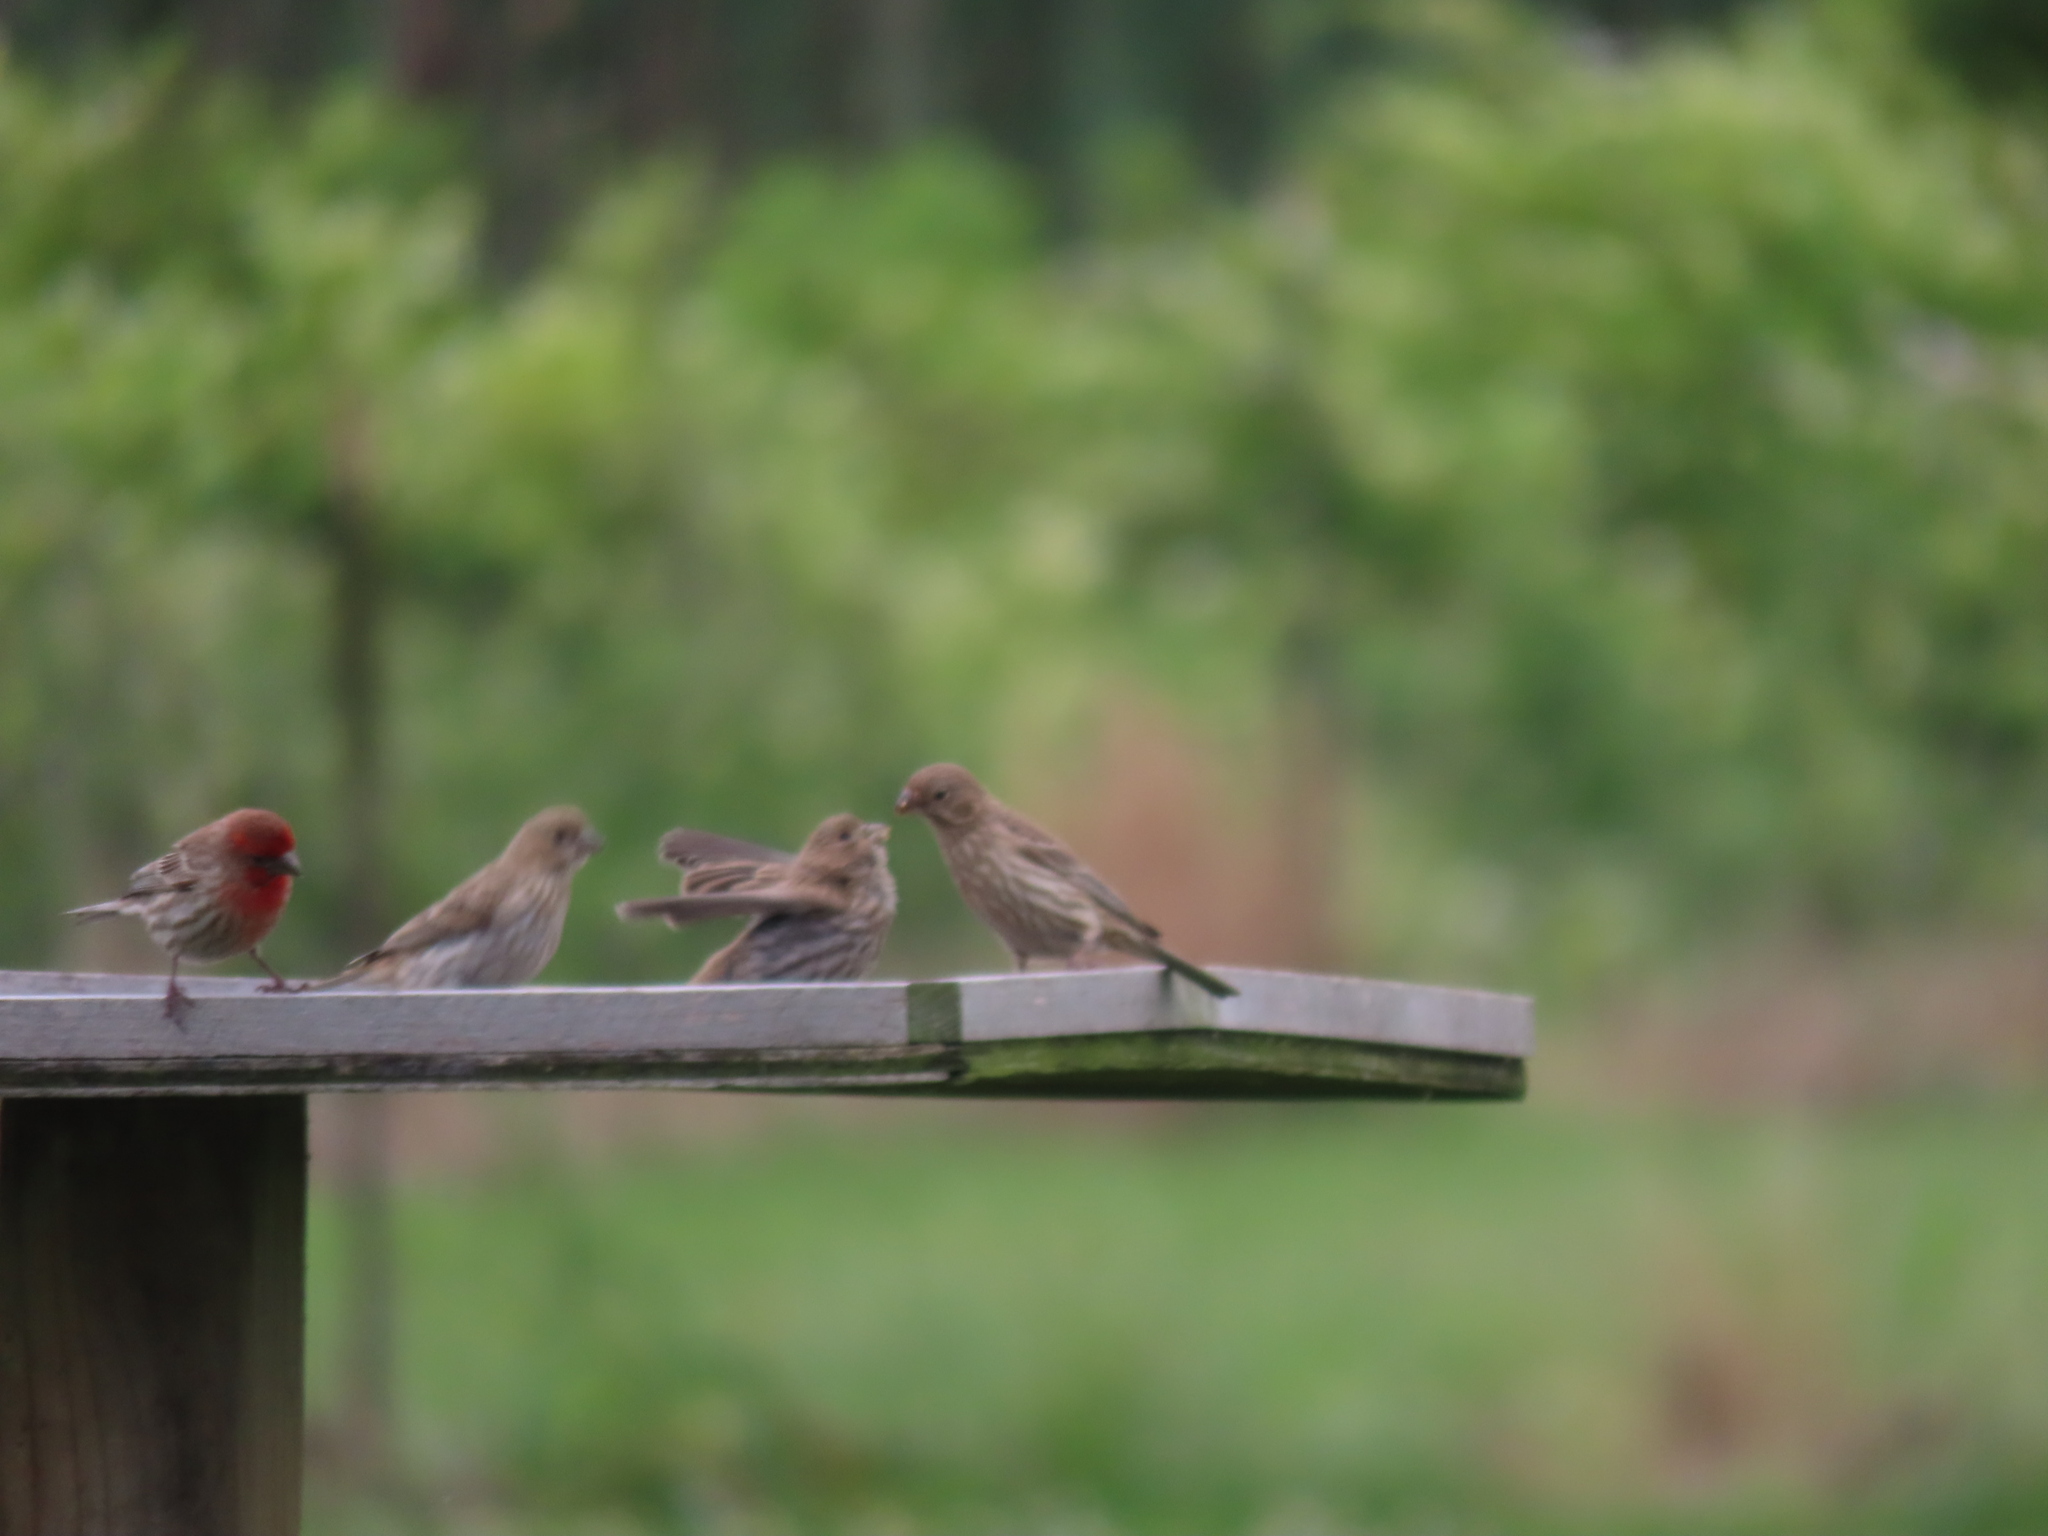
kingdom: Animalia
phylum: Chordata
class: Aves
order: Passeriformes
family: Fringillidae
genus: Haemorhous
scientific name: Haemorhous mexicanus
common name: House finch
